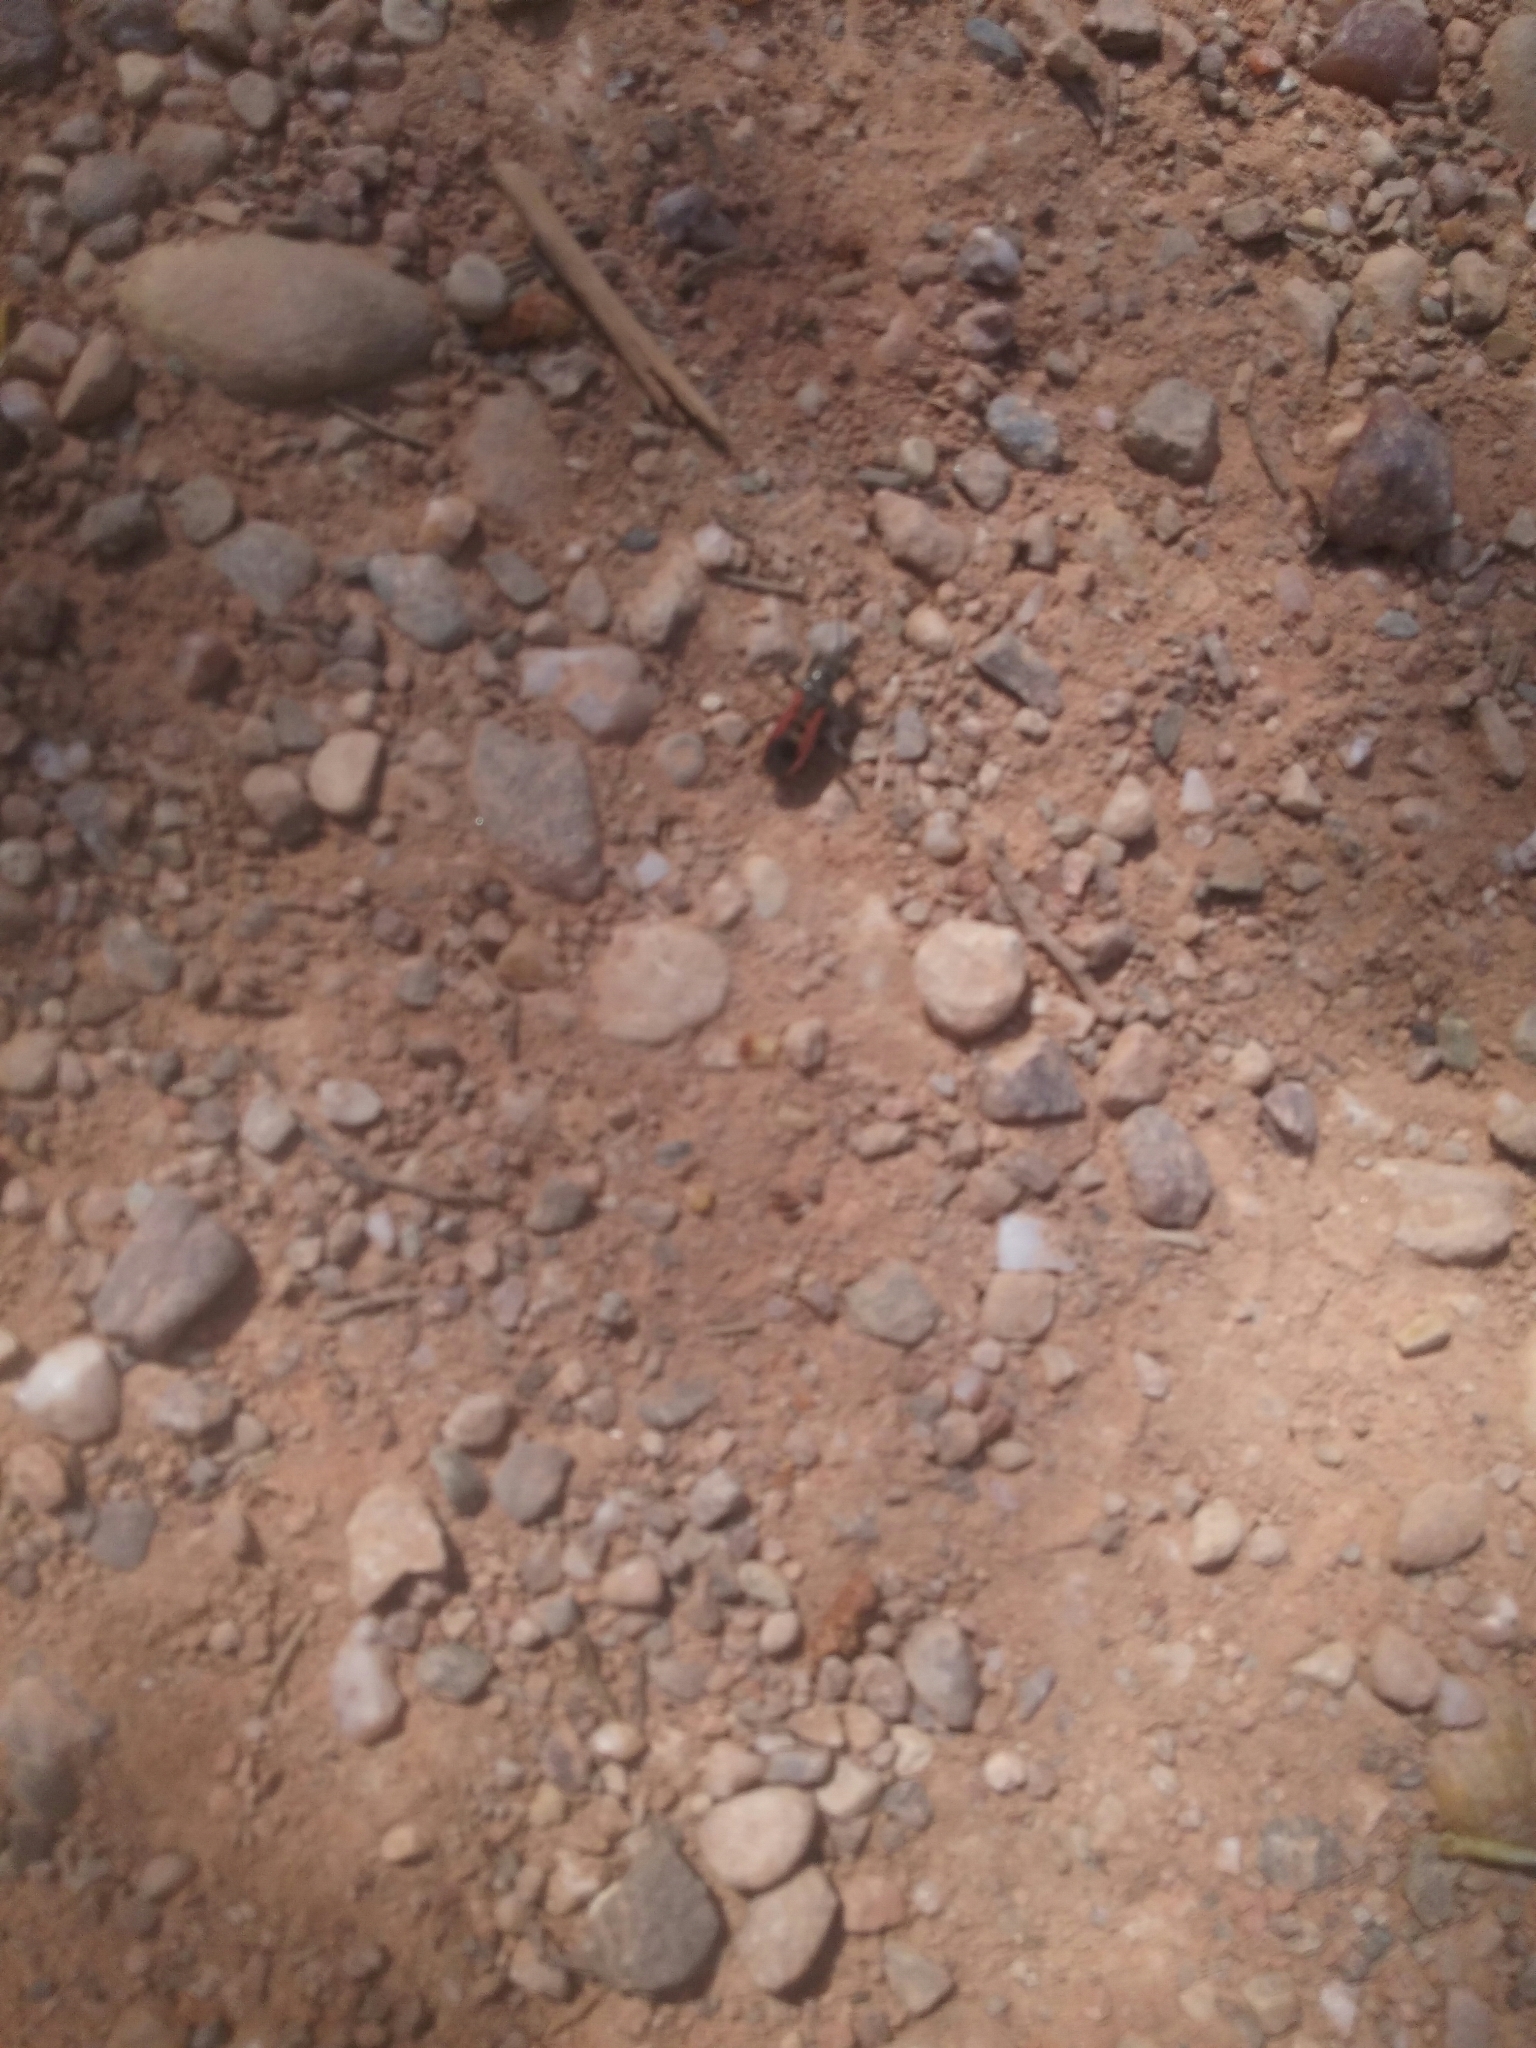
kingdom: Animalia
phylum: Arthropoda
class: Insecta
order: Hemiptera
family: Reduviidae
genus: Peirates
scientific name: Peirates stridulus
